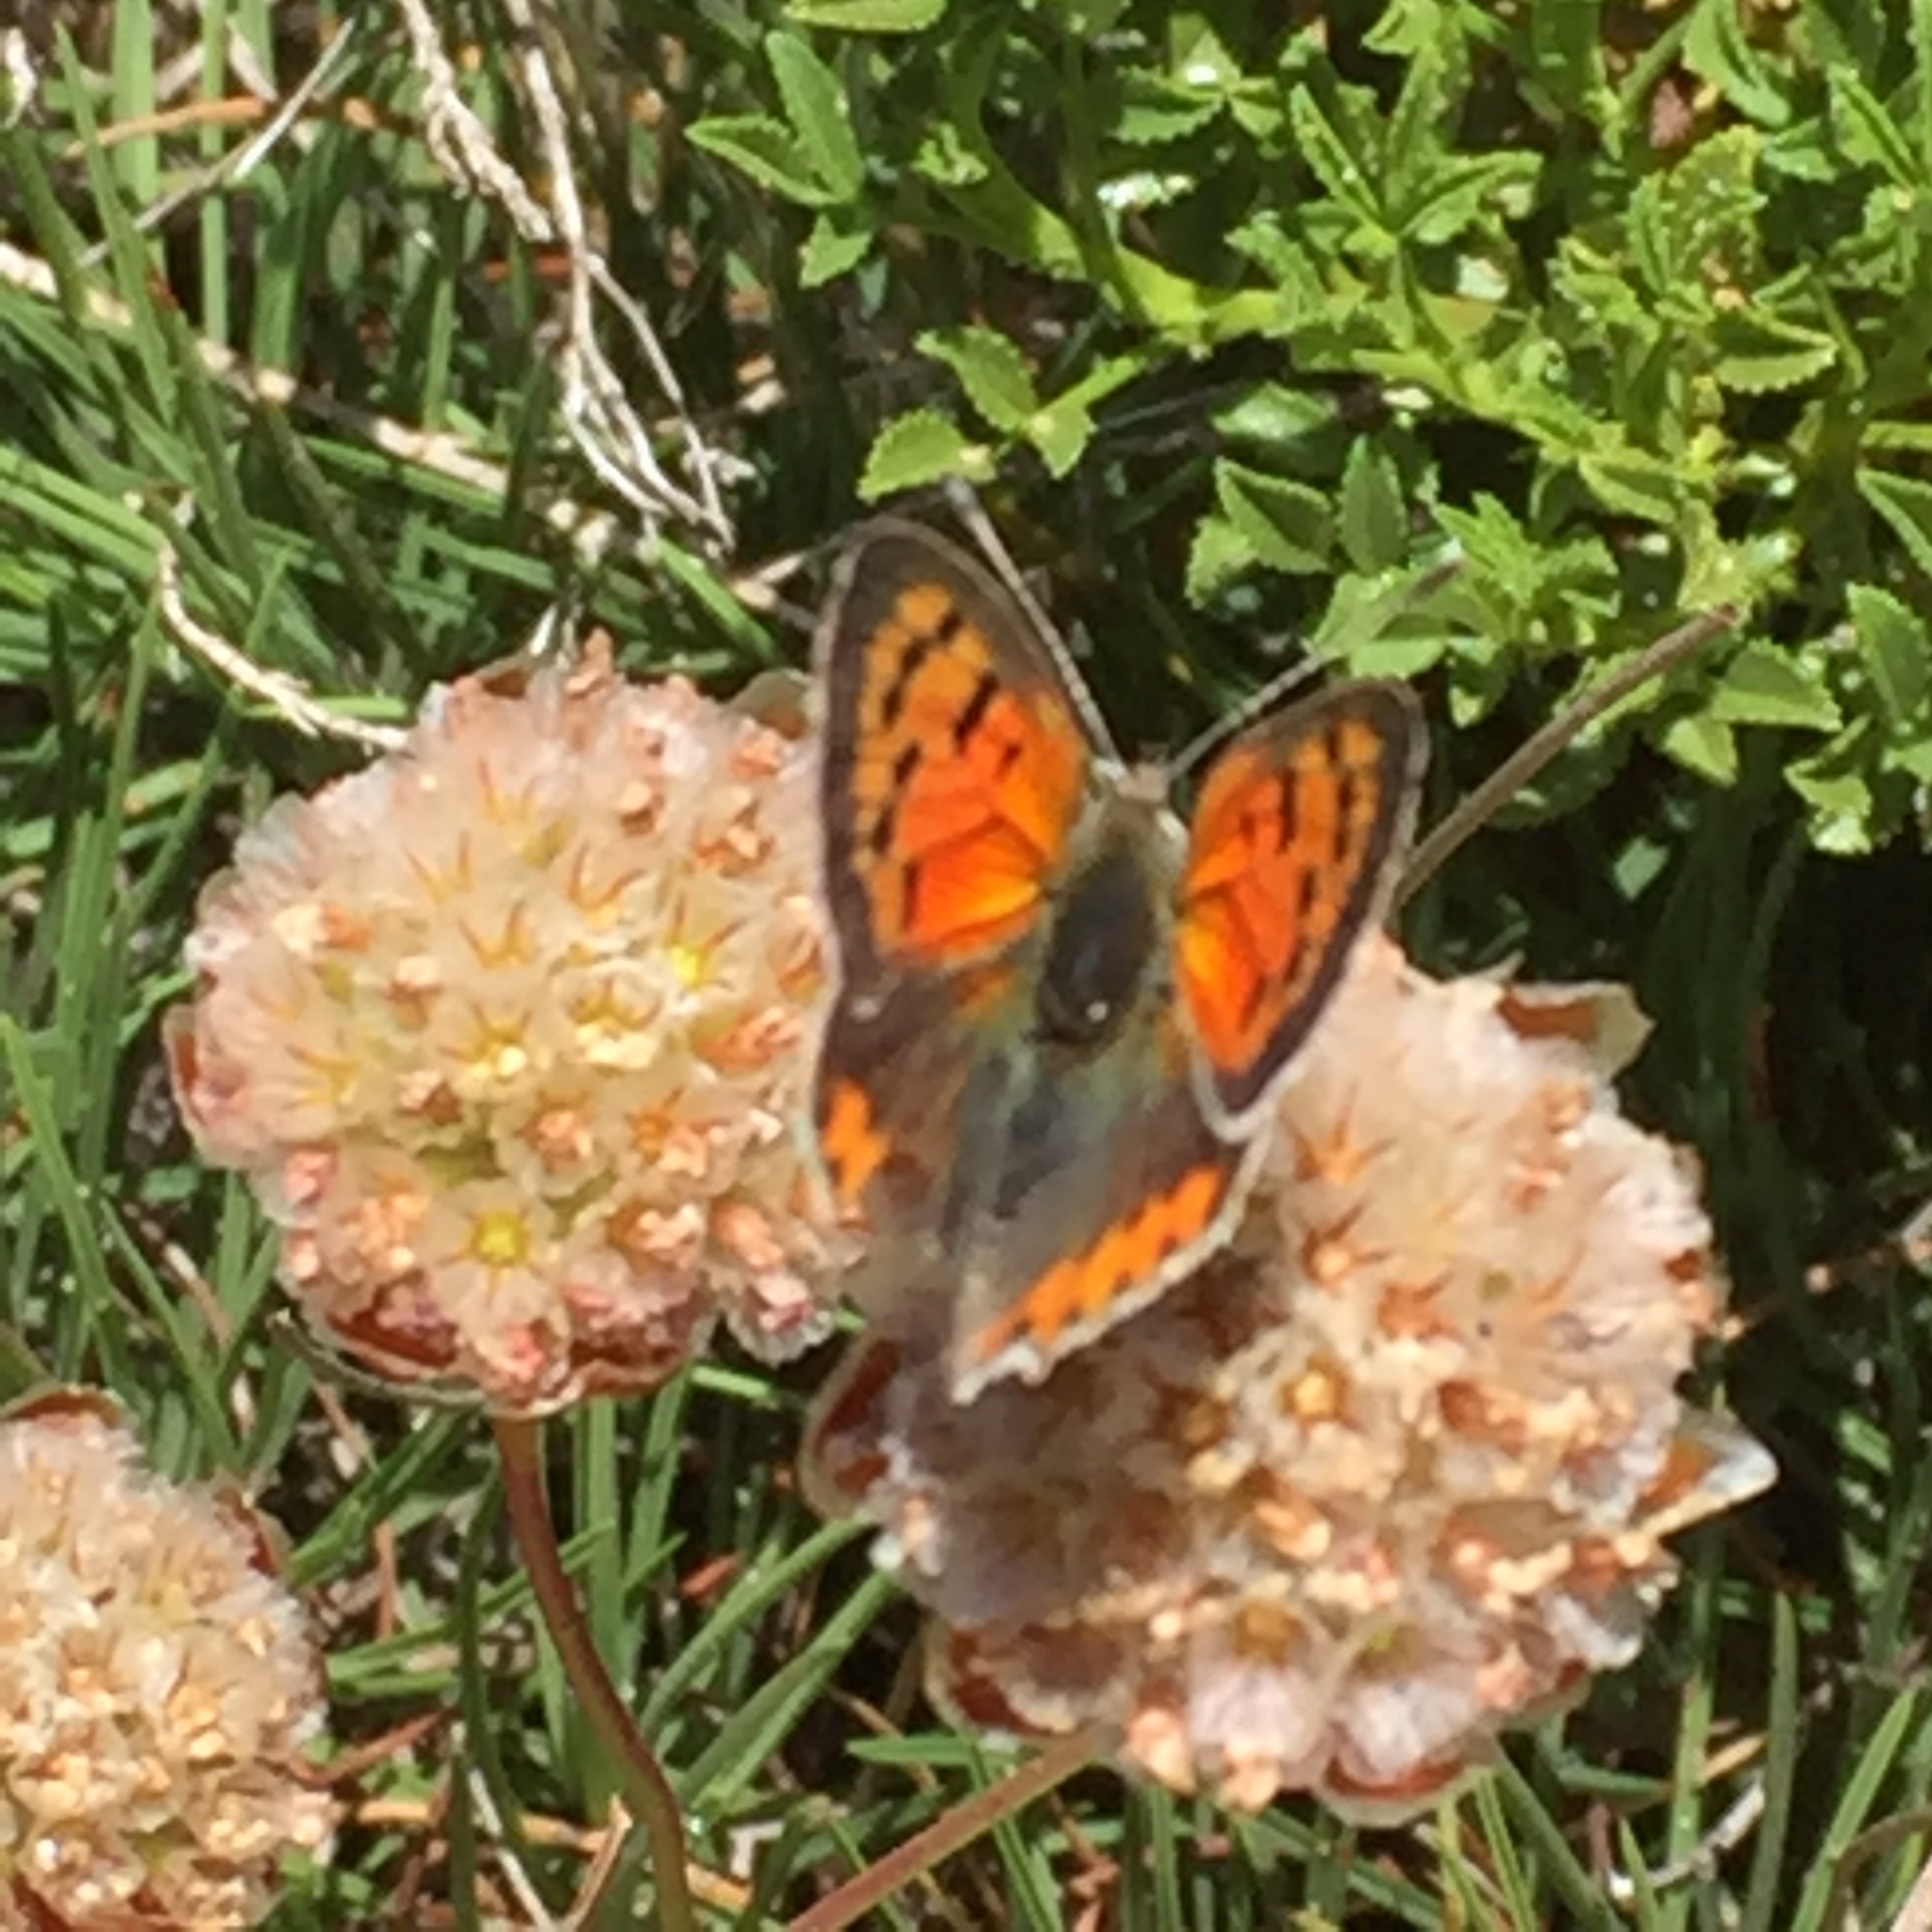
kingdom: Animalia
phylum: Arthropoda
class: Insecta
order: Lepidoptera
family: Lycaenidae
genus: Lycaena
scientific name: Lycaena phlaeas
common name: Small copper
